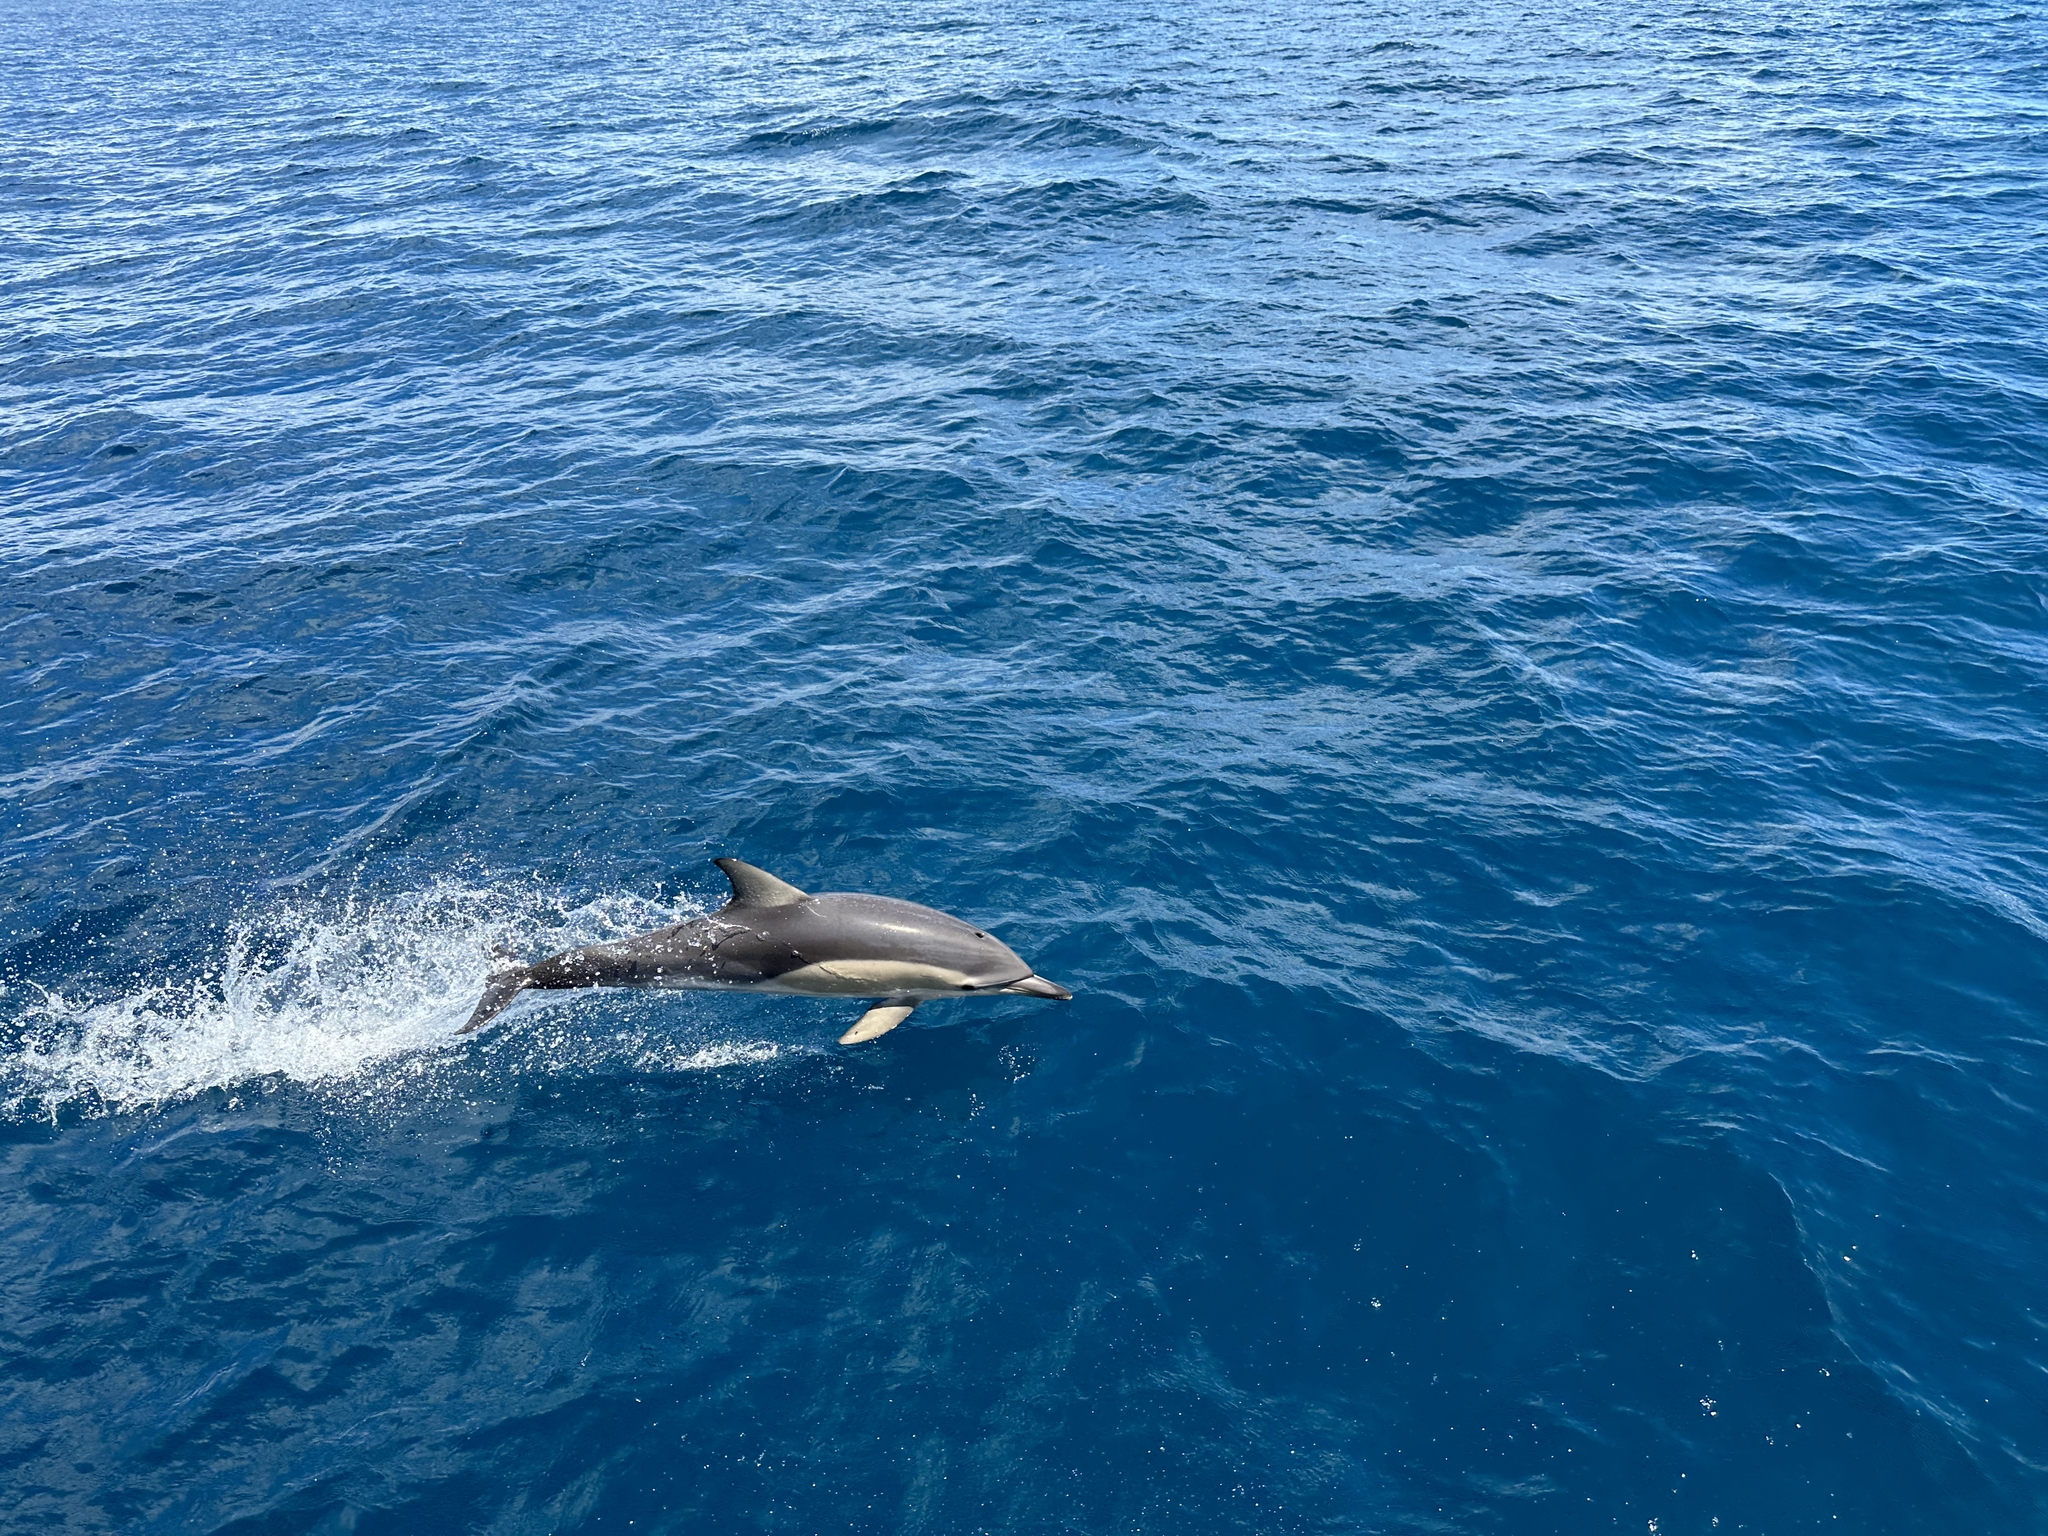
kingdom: Animalia
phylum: Chordata
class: Mammalia
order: Cetacea
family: Delphinidae
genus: Delphinus
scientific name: Delphinus delphis
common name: Common dolphin
